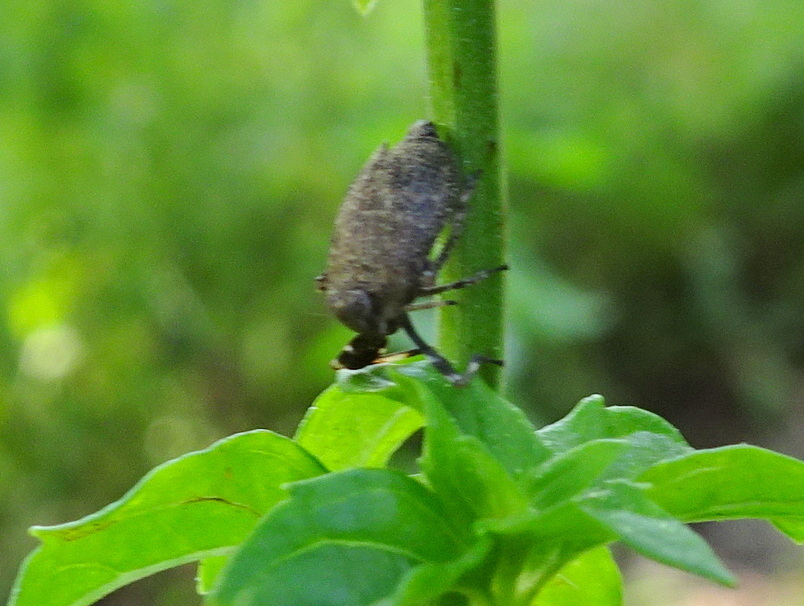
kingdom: Animalia
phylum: Arthropoda
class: Insecta
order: Hemiptera
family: Dictyopharidae
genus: Phylloscelis
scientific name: Phylloscelis pallescens
